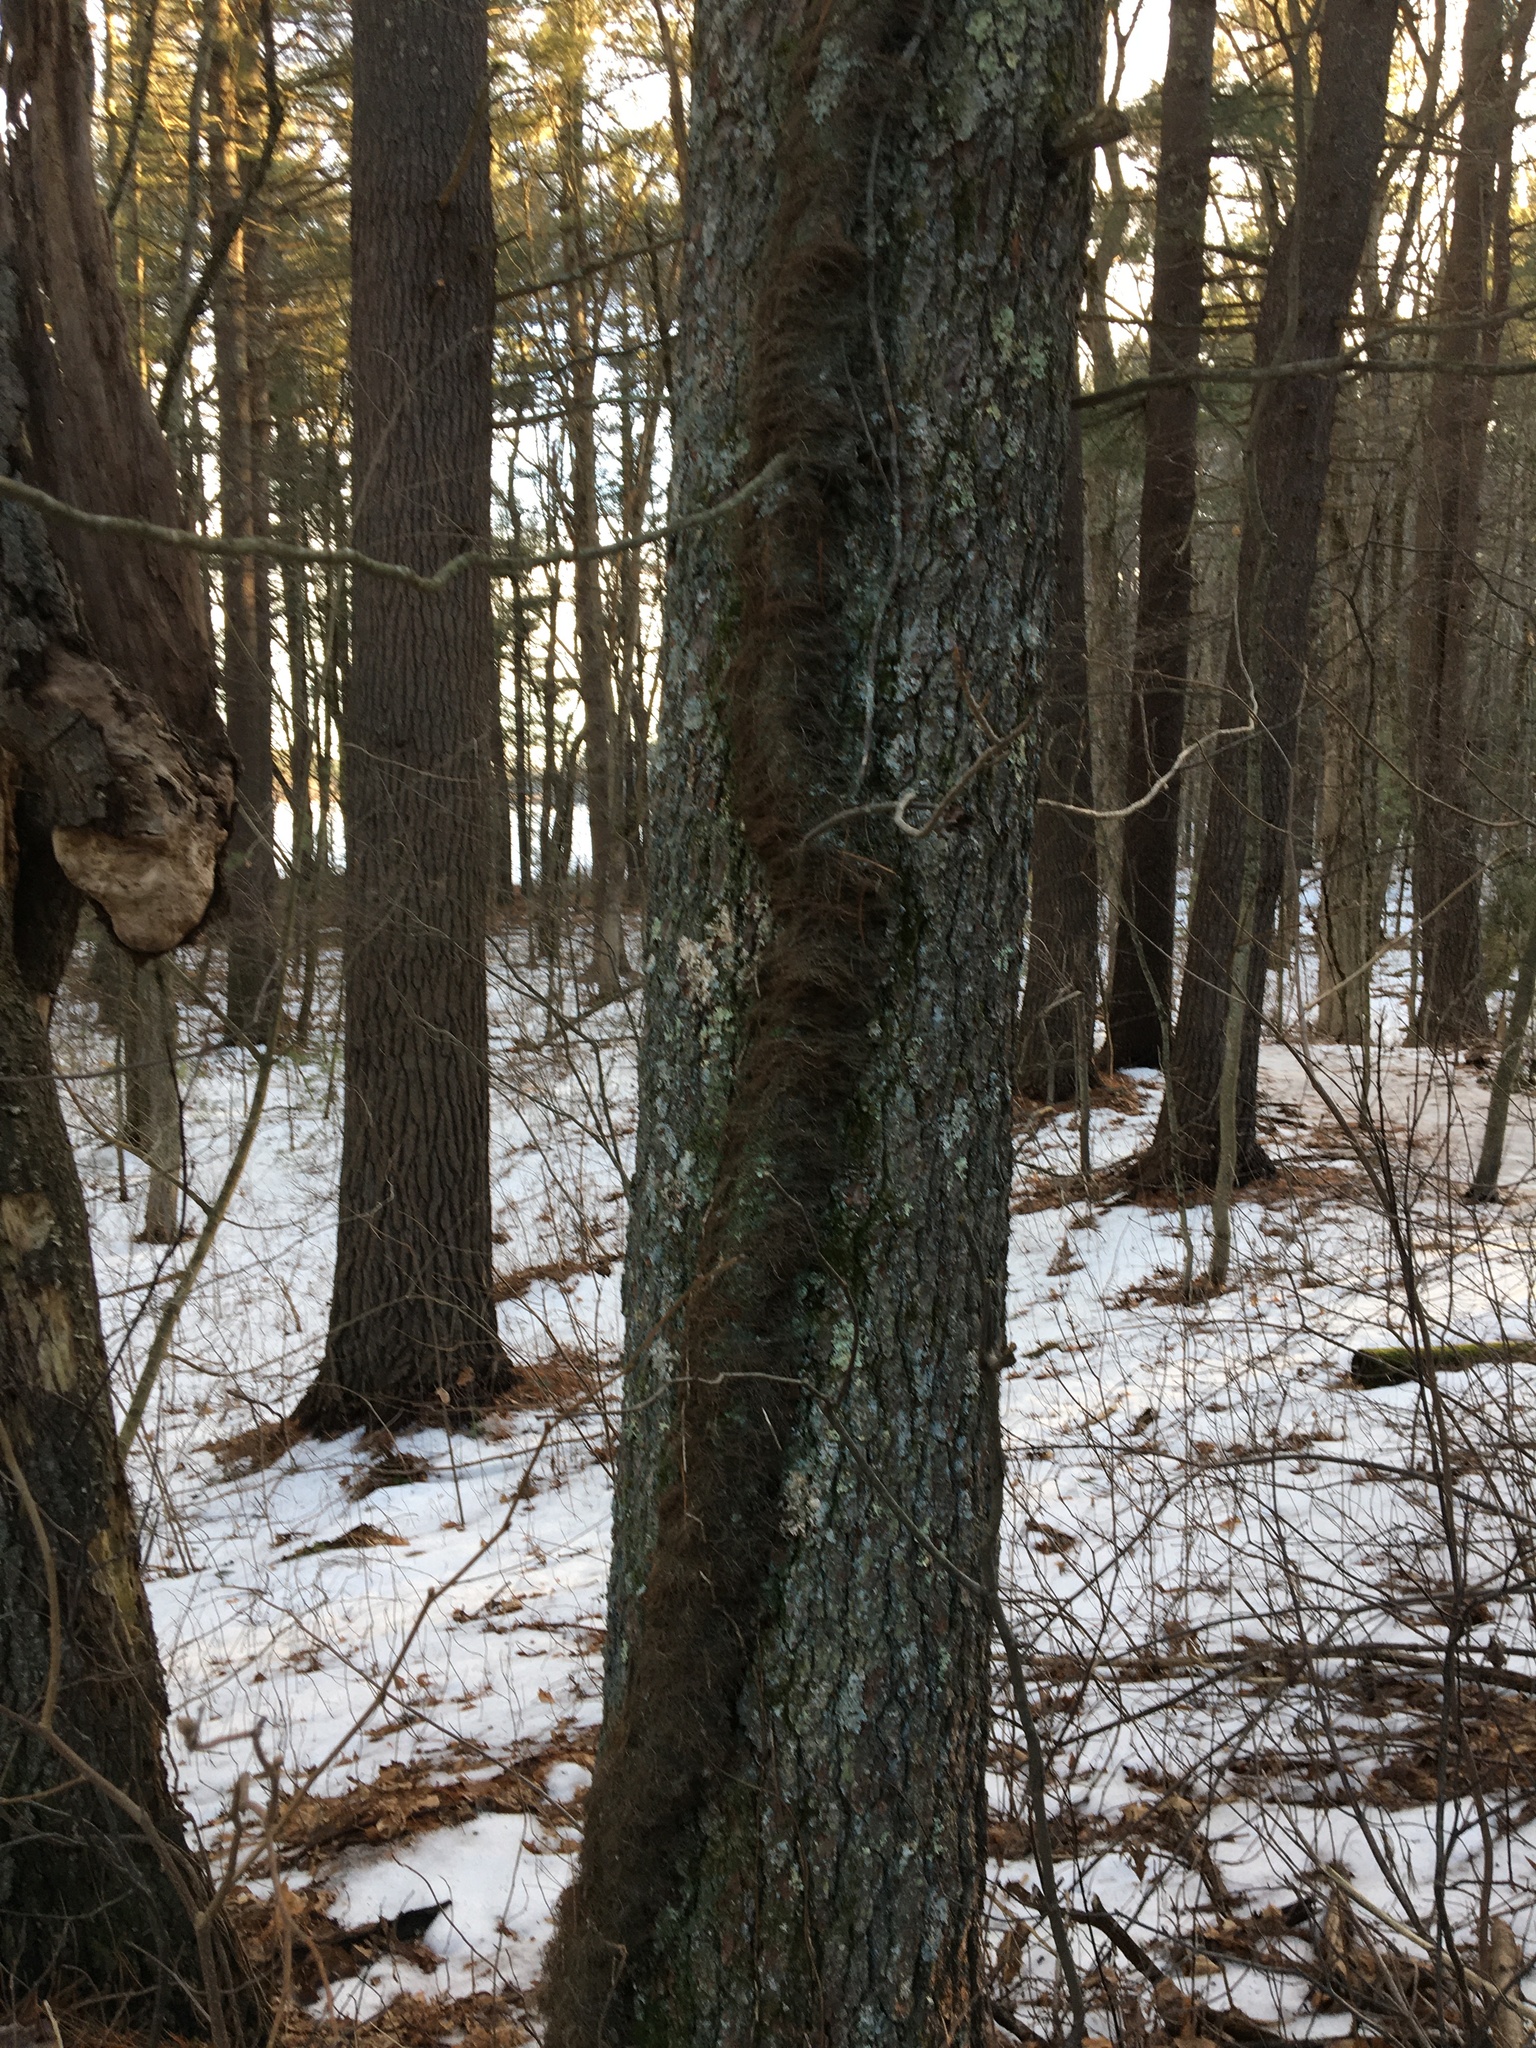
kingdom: Plantae
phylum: Tracheophyta
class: Magnoliopsida
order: Sapindales
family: Anacardiaceae
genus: Toxicodendron
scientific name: Toxicodendron radicans
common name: Poison ivy
